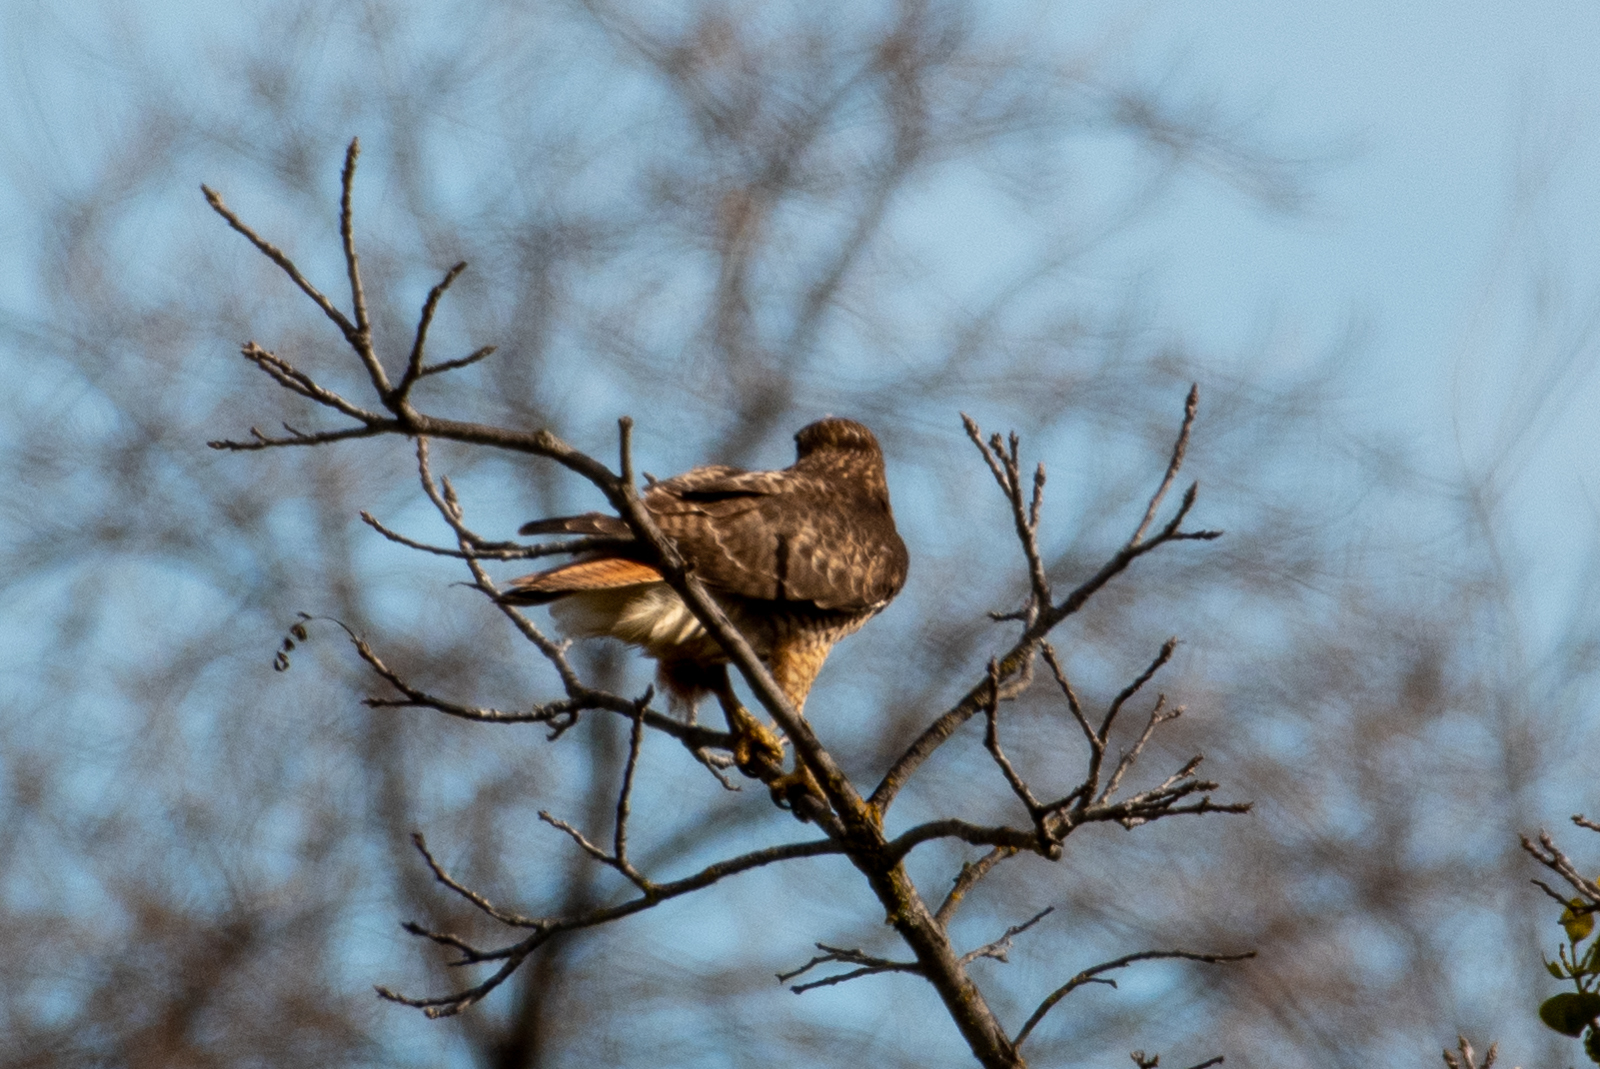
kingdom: Animalia
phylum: Chordata
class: Aves
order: Accipitriformes
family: Accipitridae
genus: Buteo
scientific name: Buteo jamaicensis
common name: Red-tailed hawk
